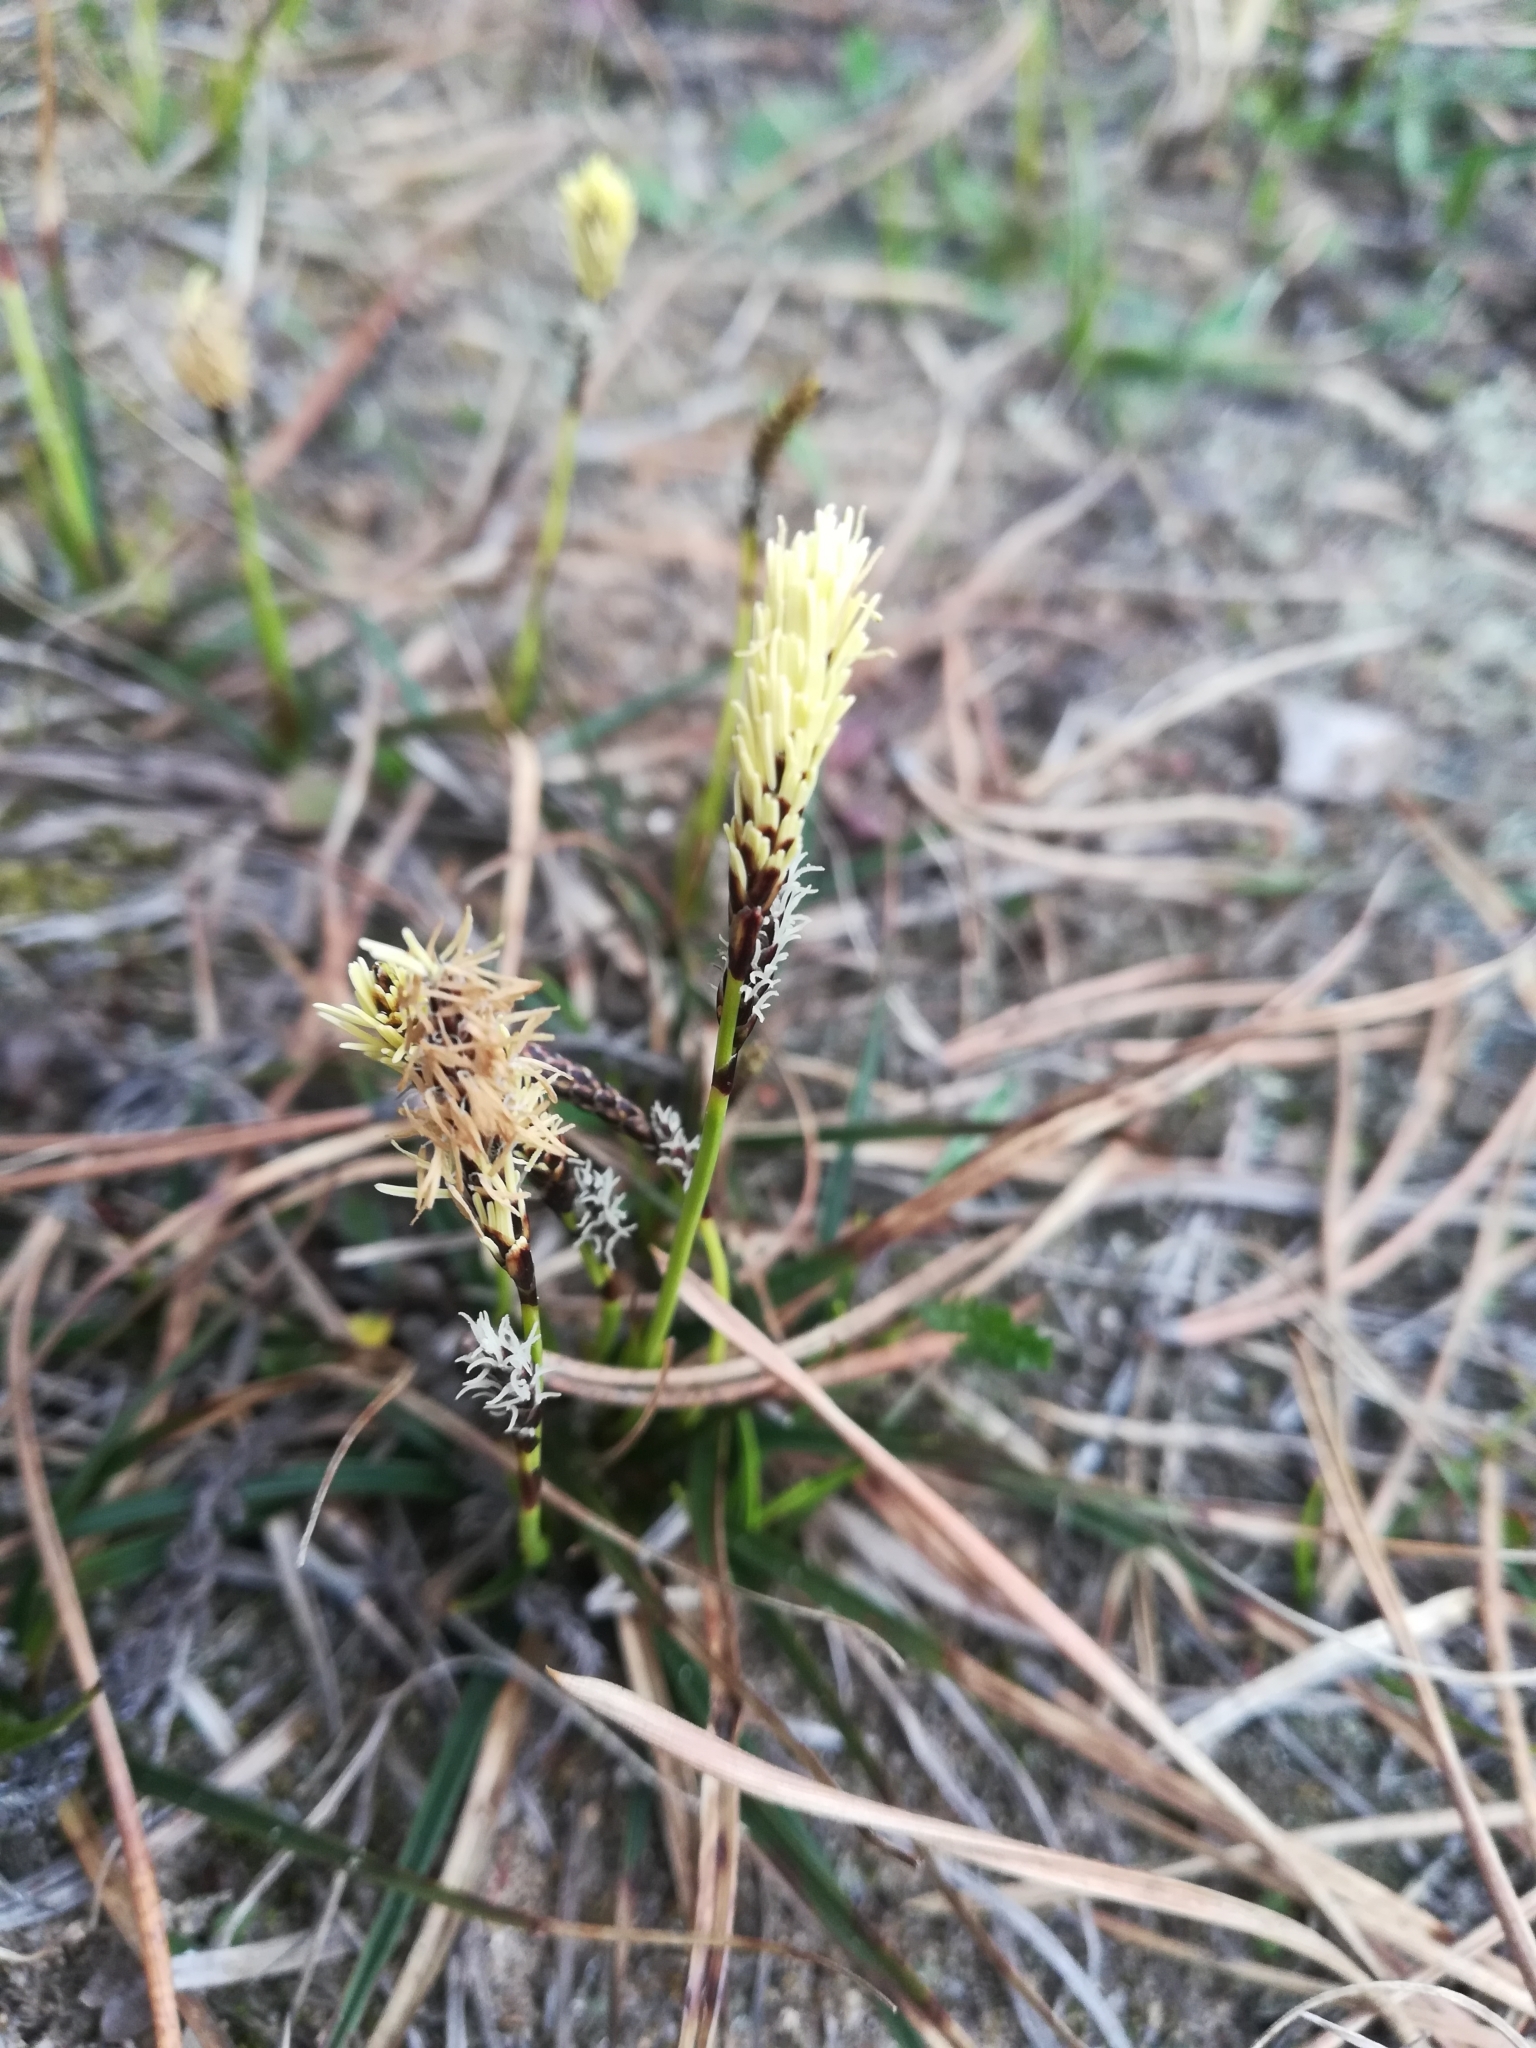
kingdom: Plantae
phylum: Tracheophyta
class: Liliopsida
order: Poales
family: Cyperaceae
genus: Carex
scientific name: Carex ericetorum
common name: Rare spring-sedge
